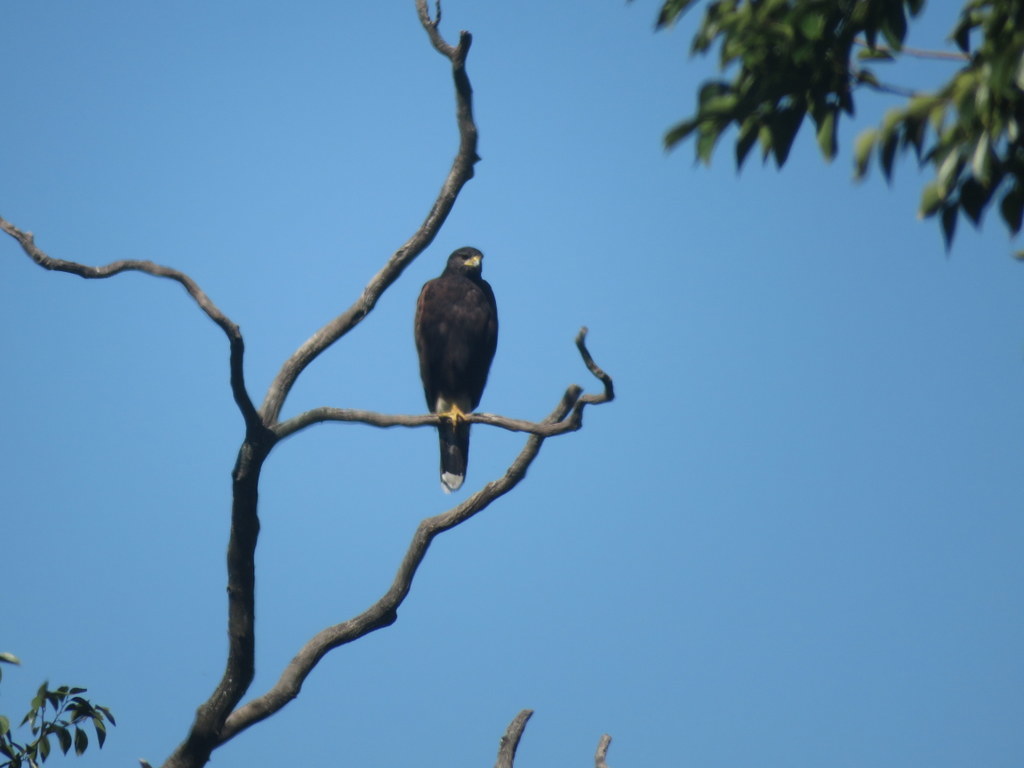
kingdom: Animalia
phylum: Chordata
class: Aves
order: Accipitriformes
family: Accipitridae
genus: Parabuteo
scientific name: Parabuteo unicinctus
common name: Harris's hawk
